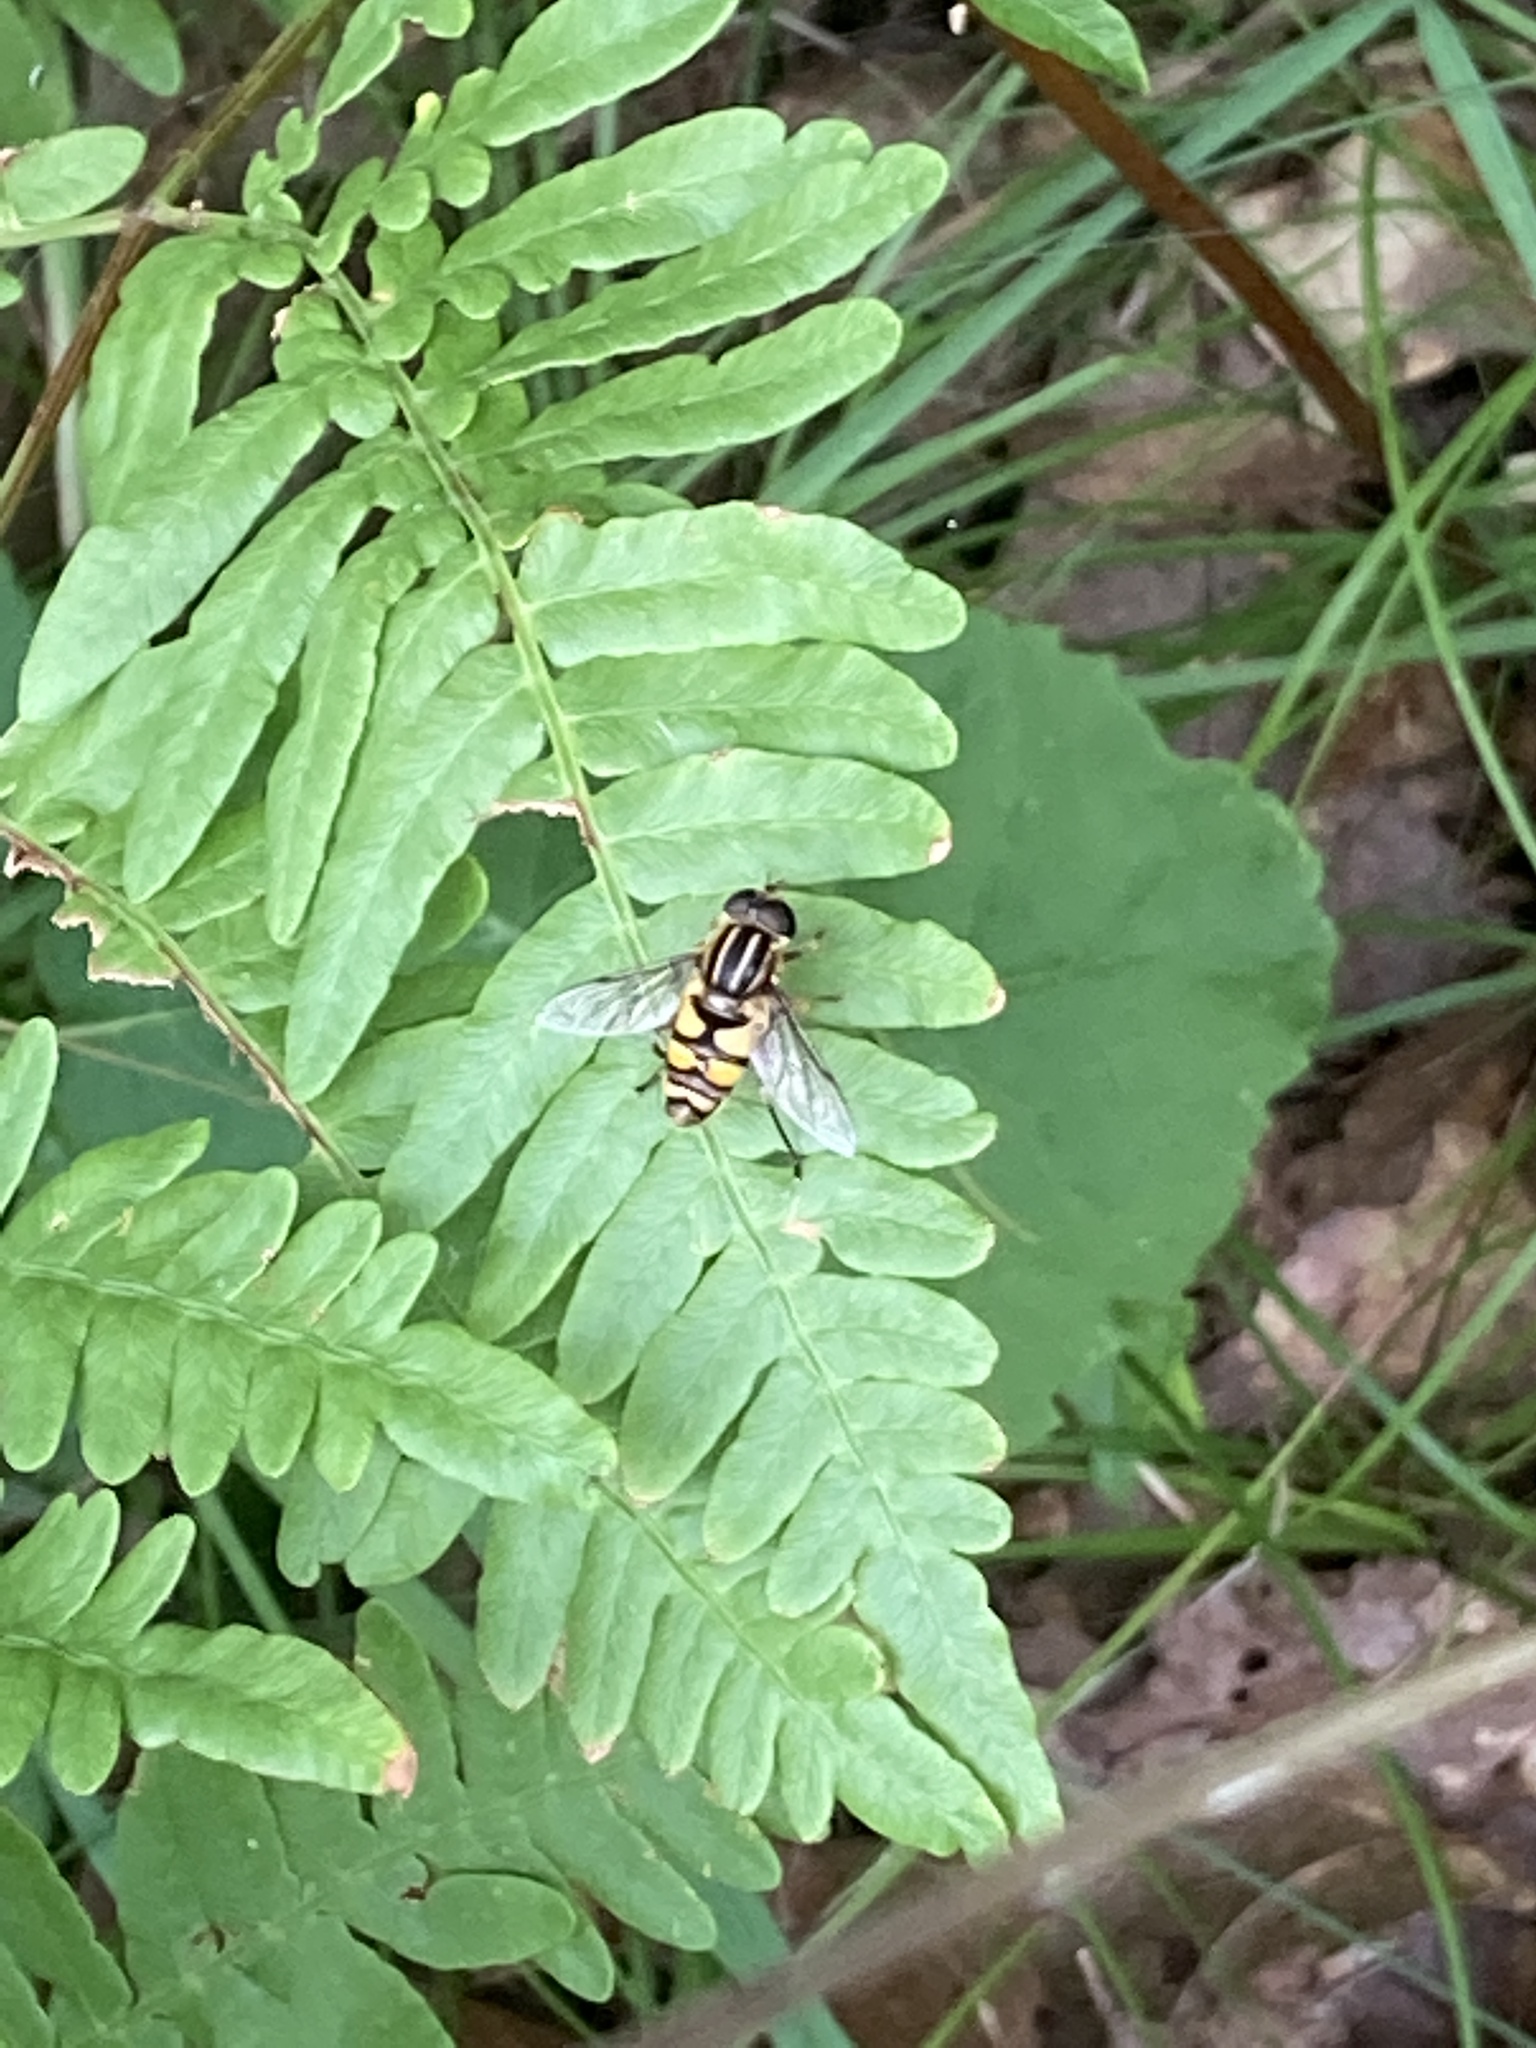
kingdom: Animalia
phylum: Arthropoda
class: Insecta
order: Diptera
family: Syrphidae
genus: Helophilus
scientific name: Helophilus fasciatus
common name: Narrow-headed marsh fly
